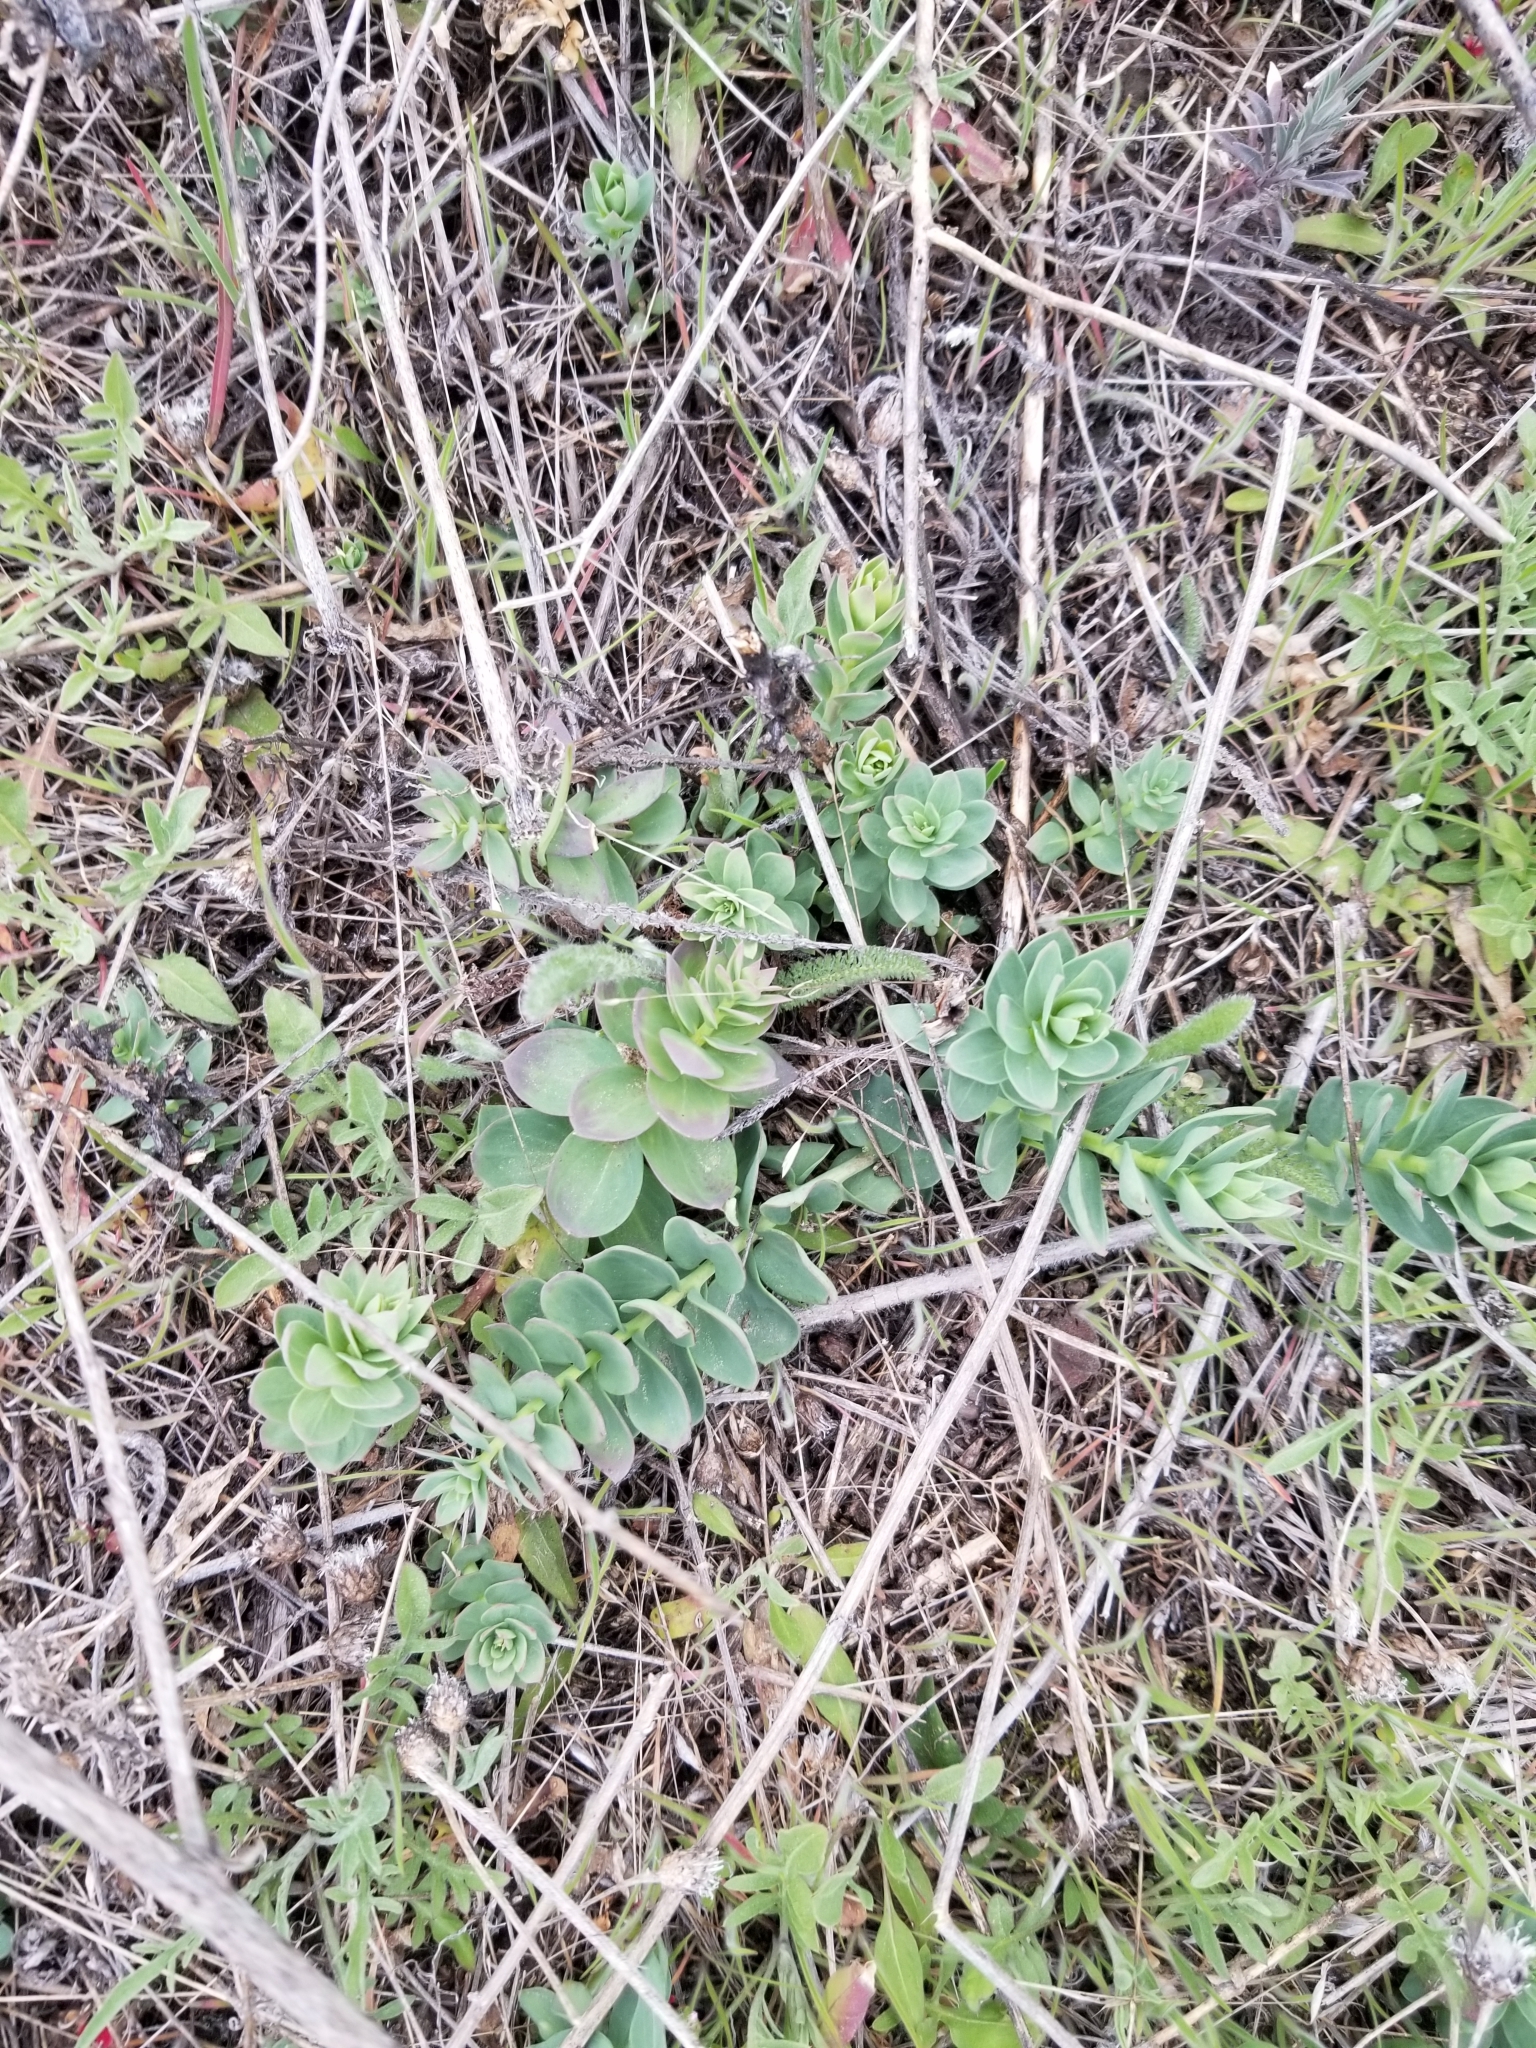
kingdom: Plantae
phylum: Tracheophyta
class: Magnoliopsida
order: Lamiales
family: Plantaginaceae
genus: Linaria
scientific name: Linaria dalmatica
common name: Dalmatian toadflax
